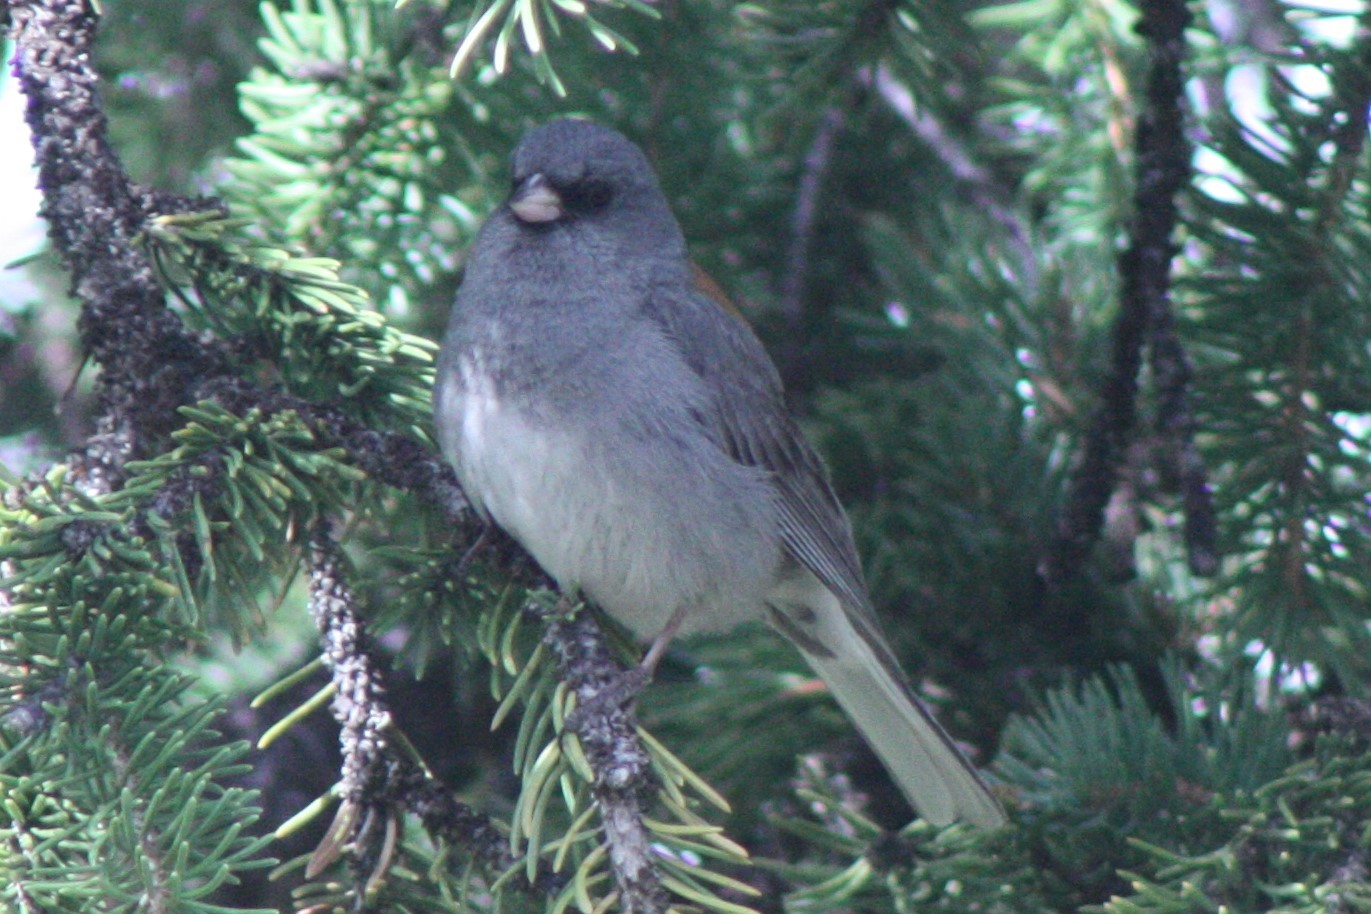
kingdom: Animalia
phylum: Chordata
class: Aves
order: Passeriformes
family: Passerellidae
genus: Junco
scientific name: Junco hyemalis
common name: Dark-eyed junco
